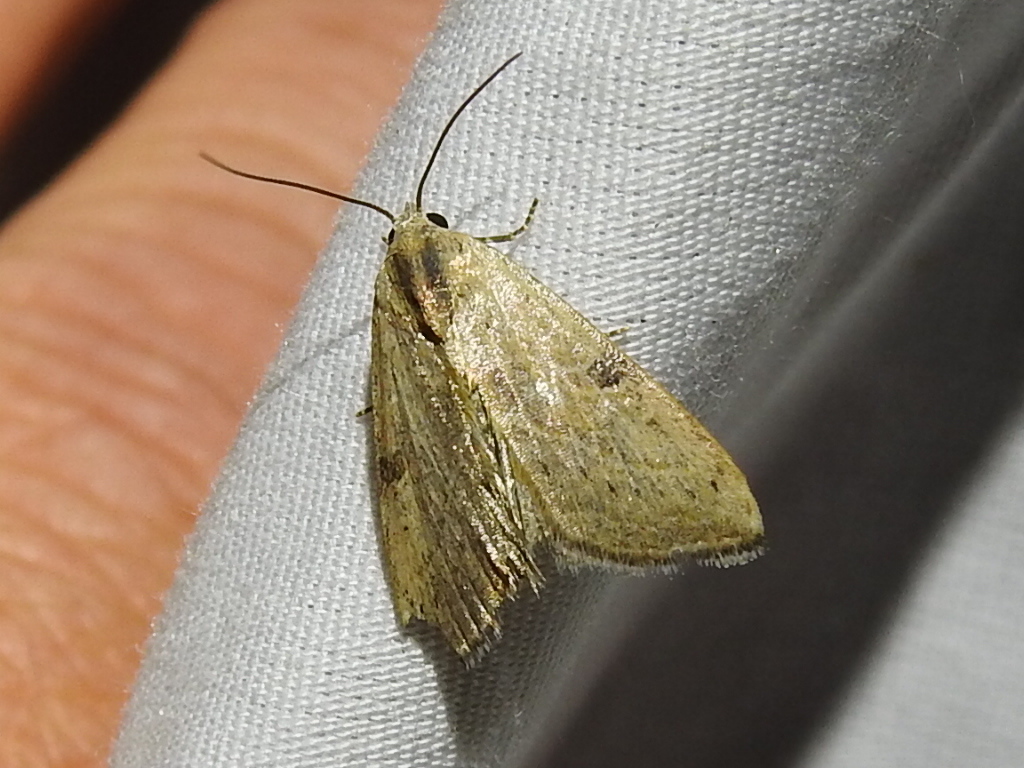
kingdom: Animalia
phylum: Arthropoda
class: Insecta
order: Lepidoptera
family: Noctuidae
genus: Galgula
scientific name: Galgula partita
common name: Wedgeling
